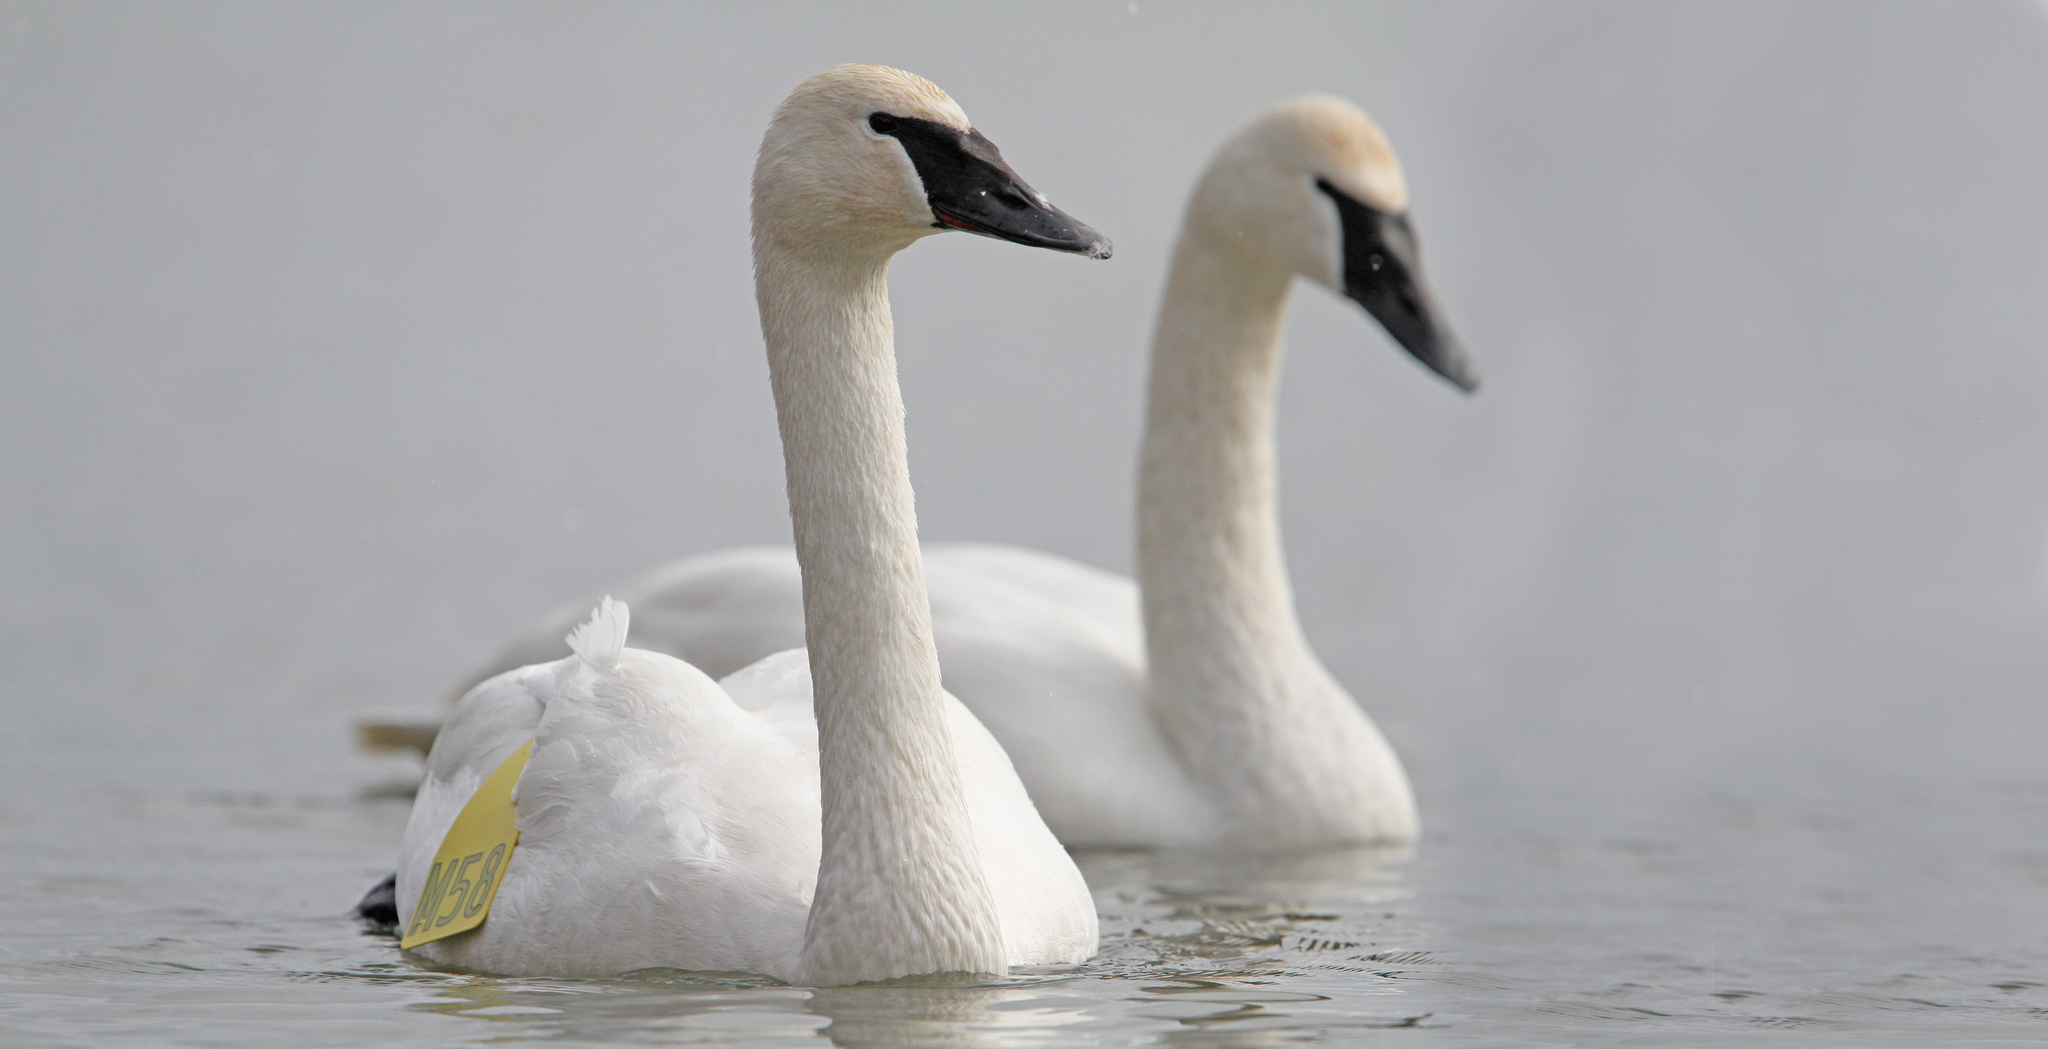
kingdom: Animalia
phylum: Chordata
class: Aves
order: Anseriformes
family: Anatidae
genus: Cygnus
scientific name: Cygnus buccinator
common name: Trumpeter swan
